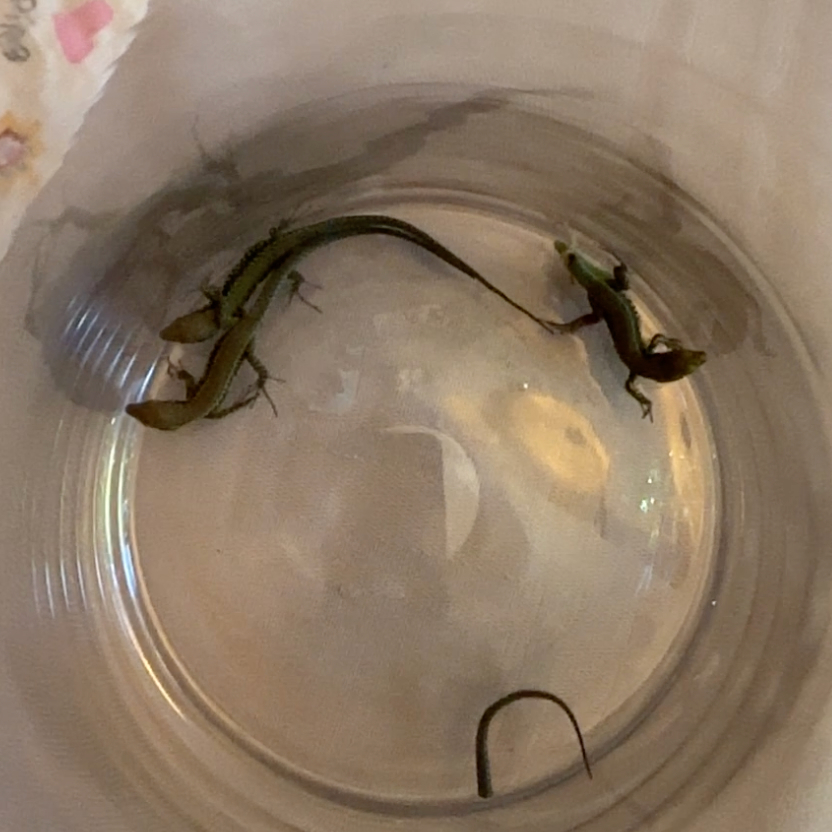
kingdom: Animalia
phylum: Chordata
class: Squamata
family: Lacertidae
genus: Podarcis
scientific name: Podarcis muralis
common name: Common wall lizard
